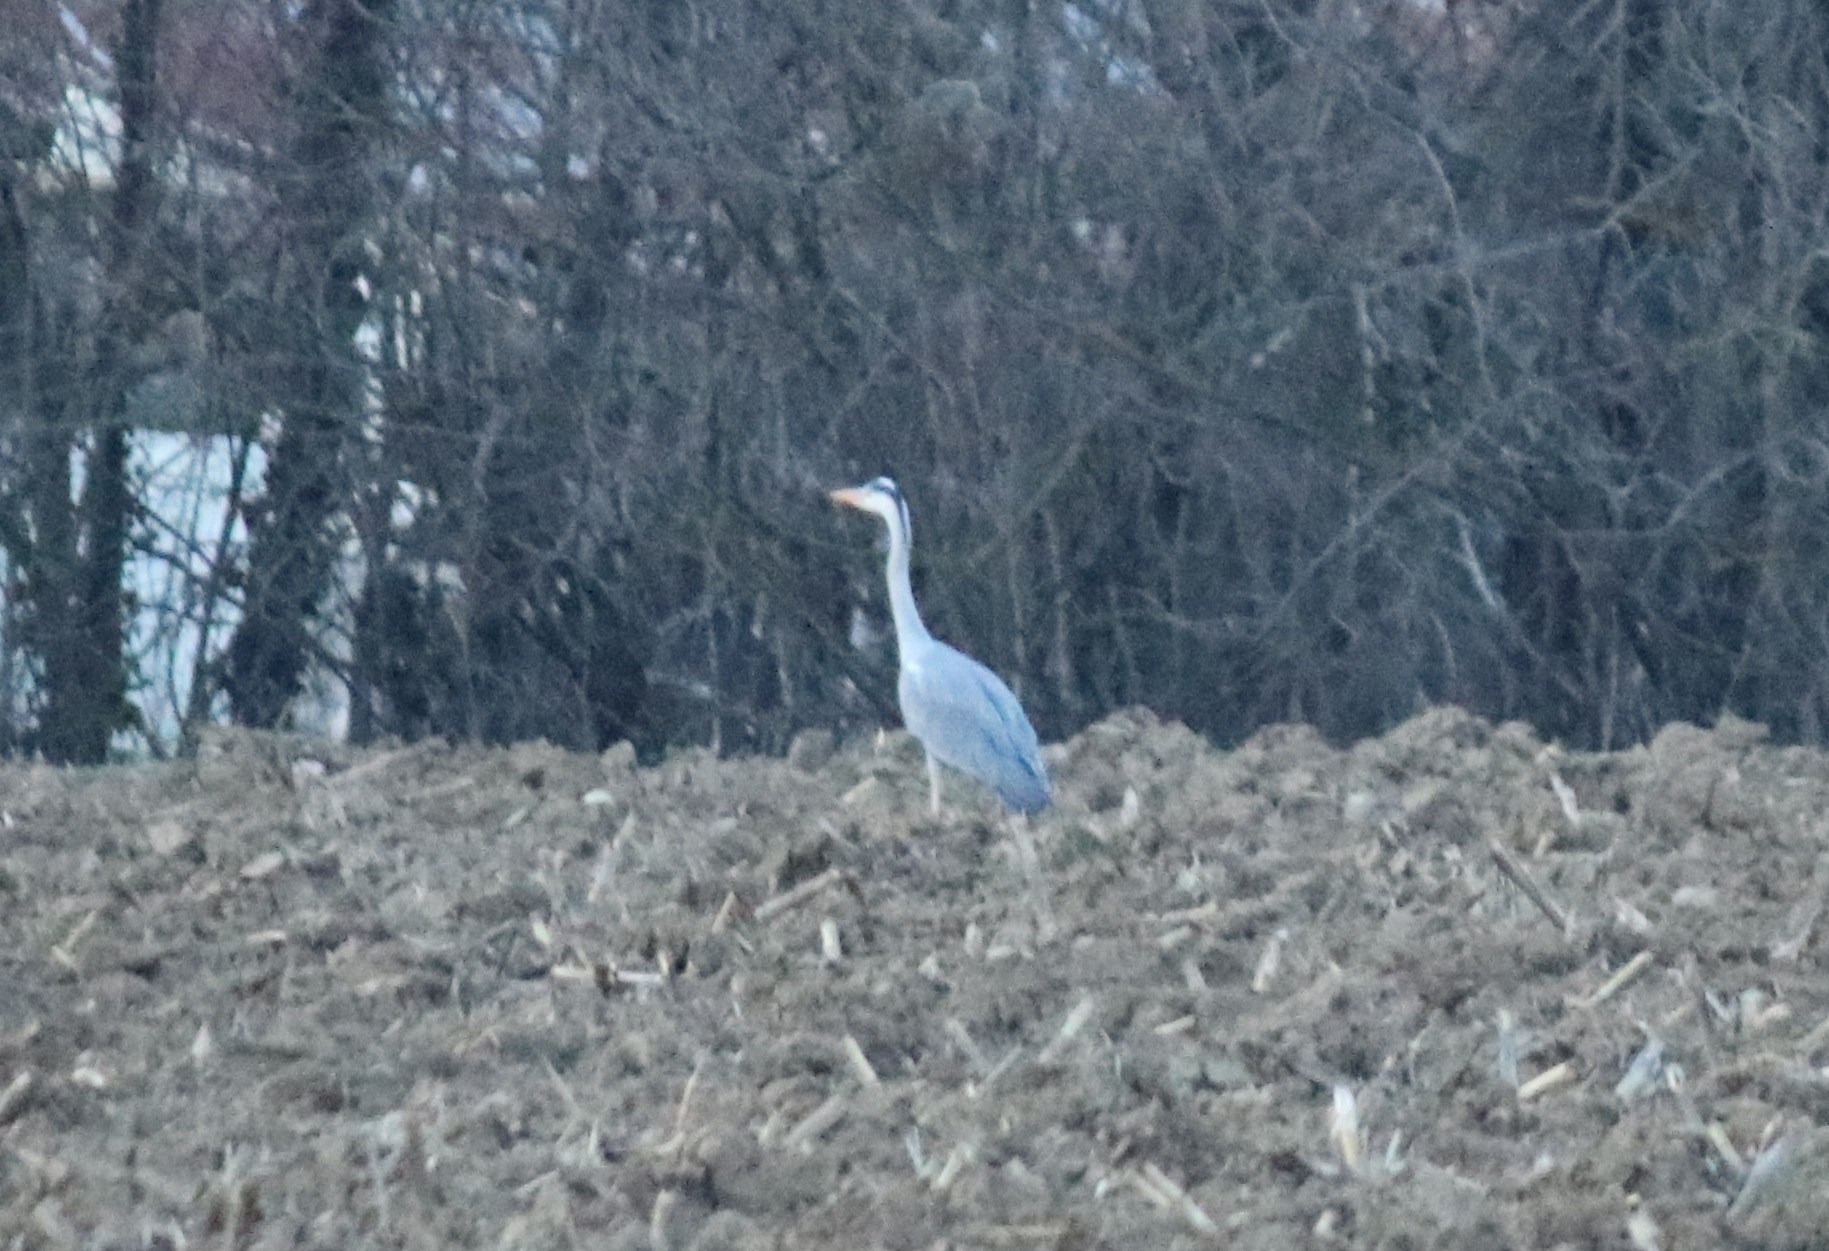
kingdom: Animalia
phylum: Chordata
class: Aves
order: Pelecaniformes
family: Ardeidae
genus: Ardea
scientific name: Ardea cinerea
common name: Grey heron
